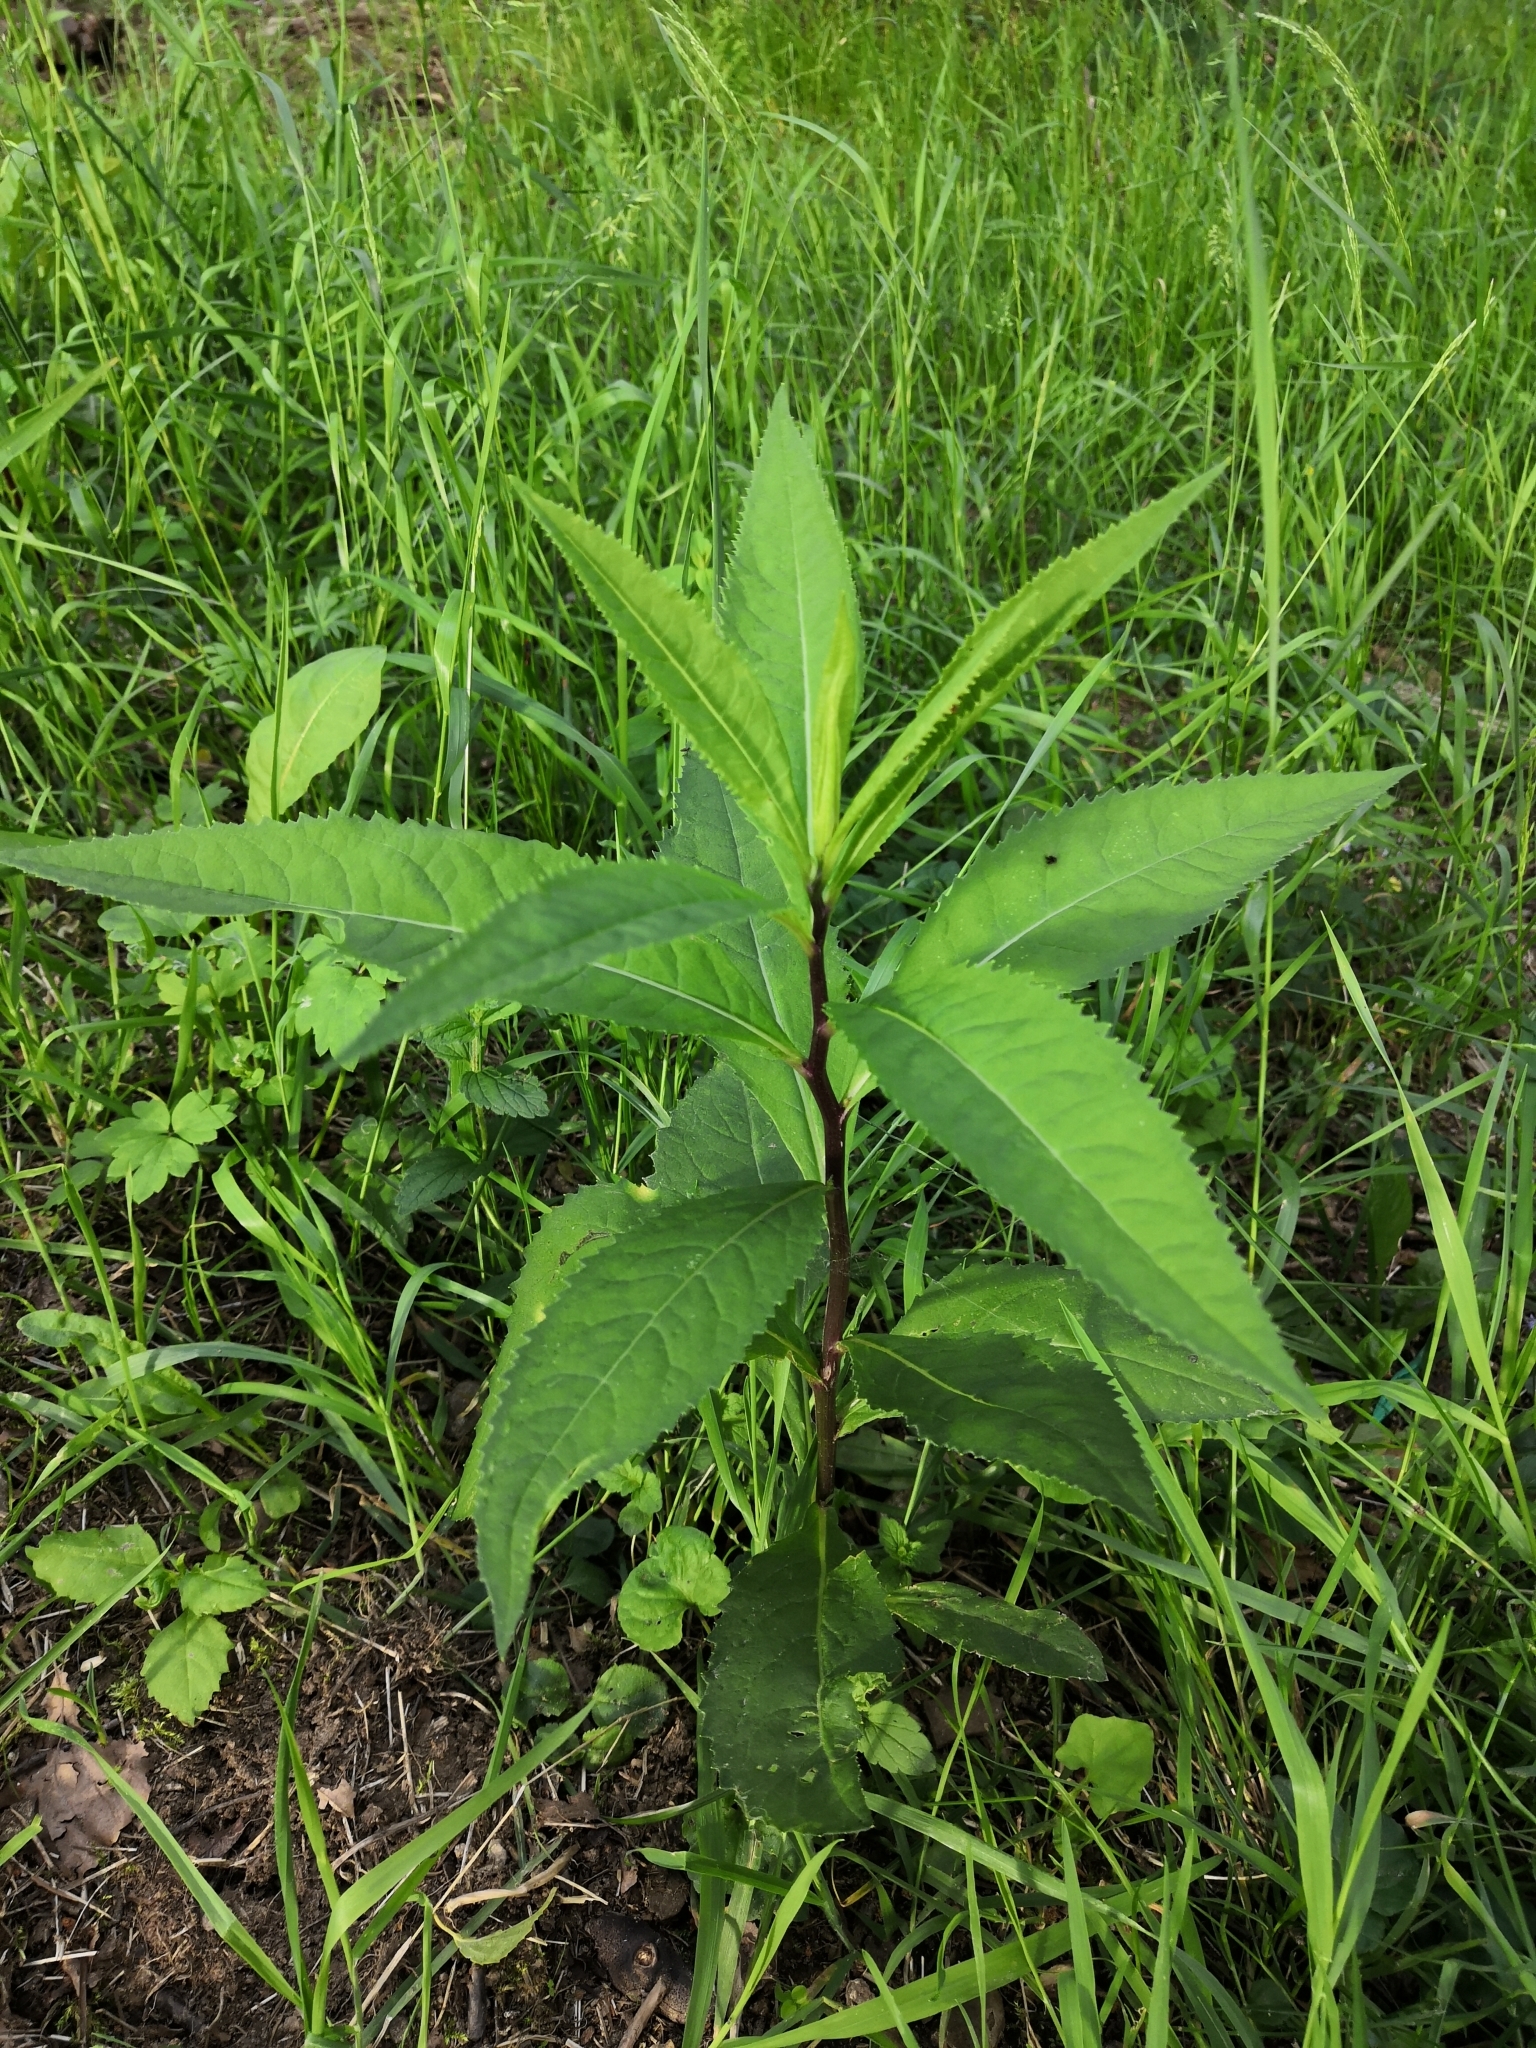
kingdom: Plantae
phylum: Tracheophyta
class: Magnoliopsida
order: Asterales
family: Asteraceae
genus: Senecio
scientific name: Senecio ovatus
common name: Wood ragwort
